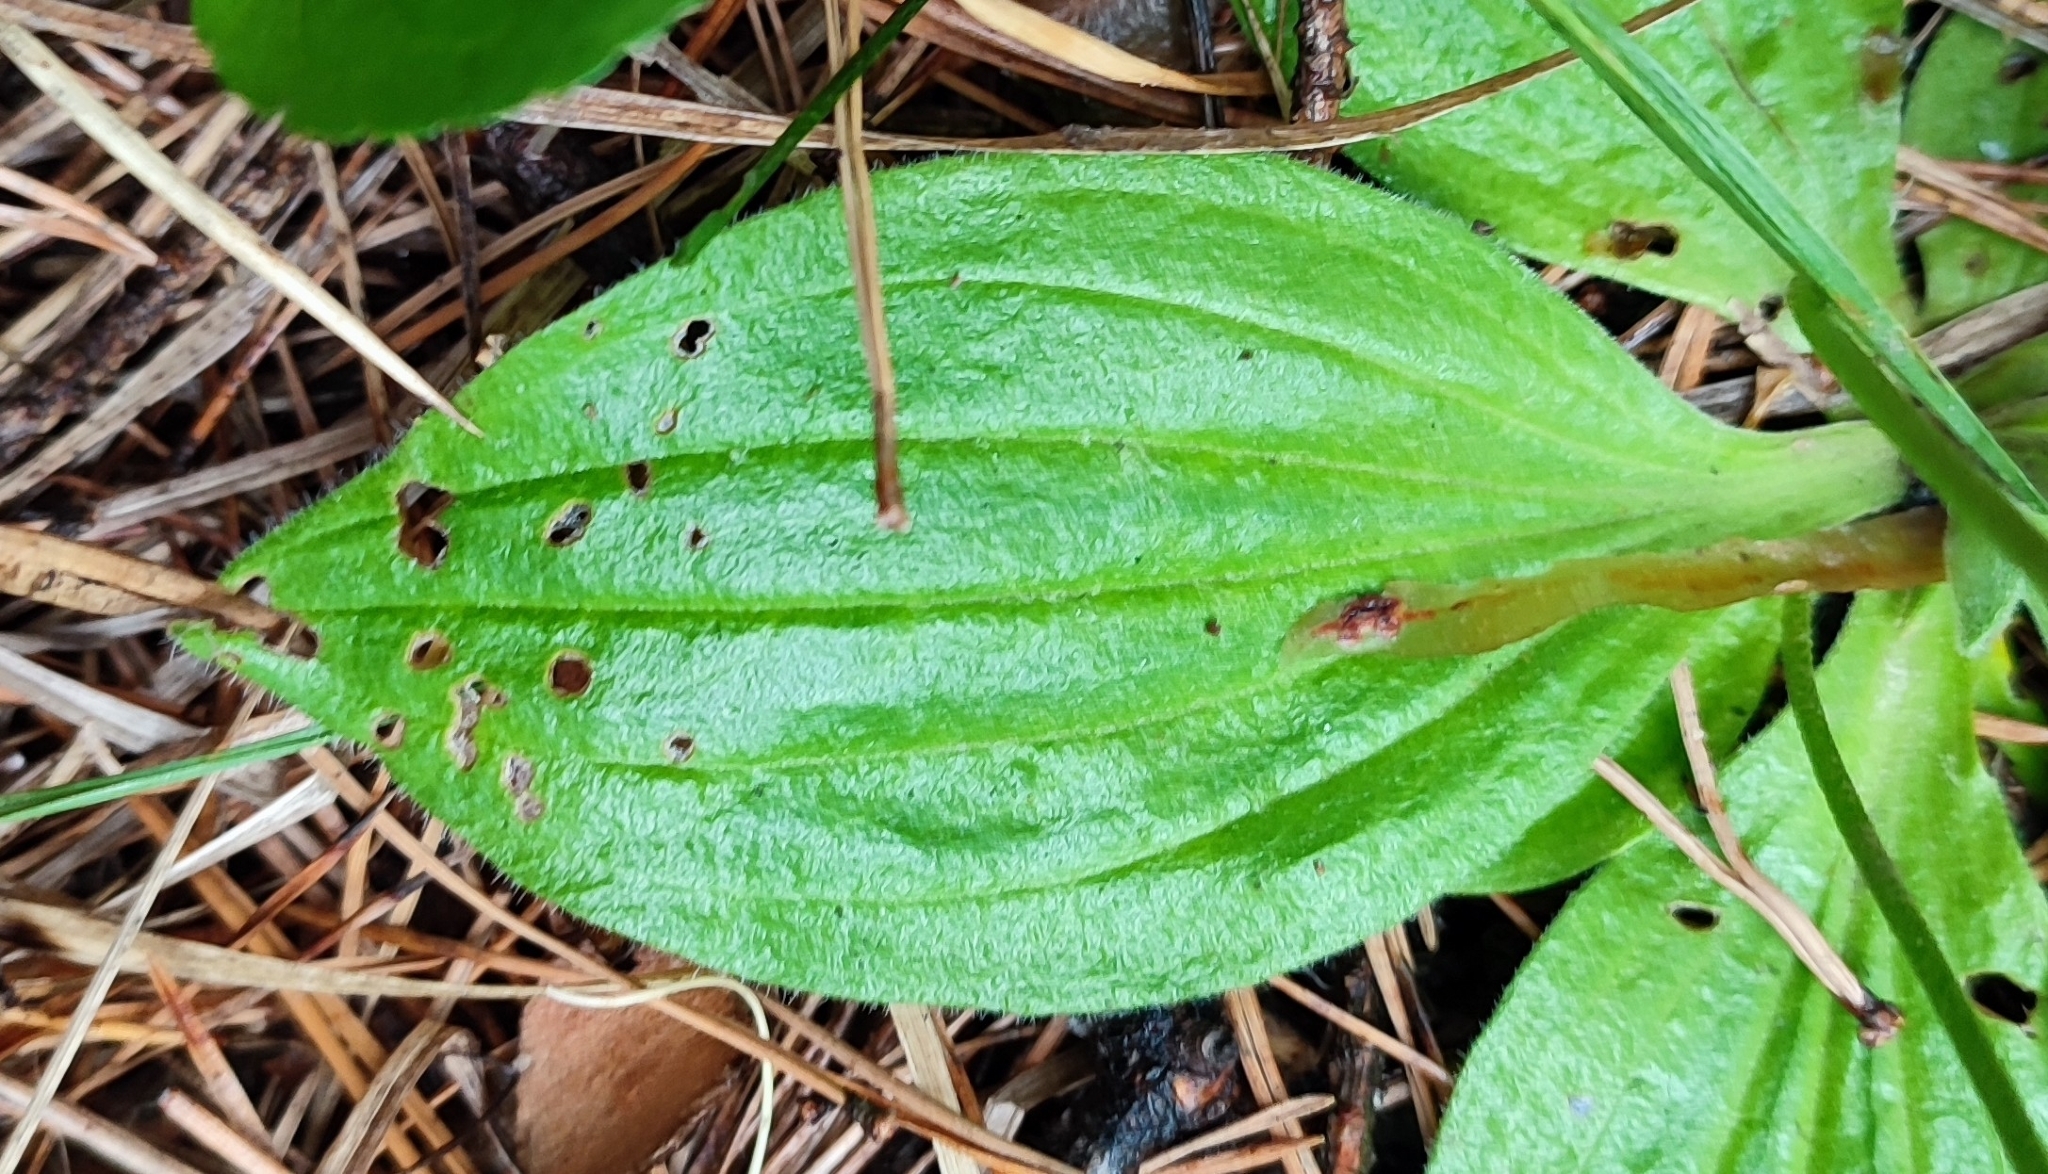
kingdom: Plantae
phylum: Tracheophyta
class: Magnoliopsida
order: Lamiales
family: Plantaginaceae
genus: Plantago
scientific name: Plantago media
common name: Hoary plantain
